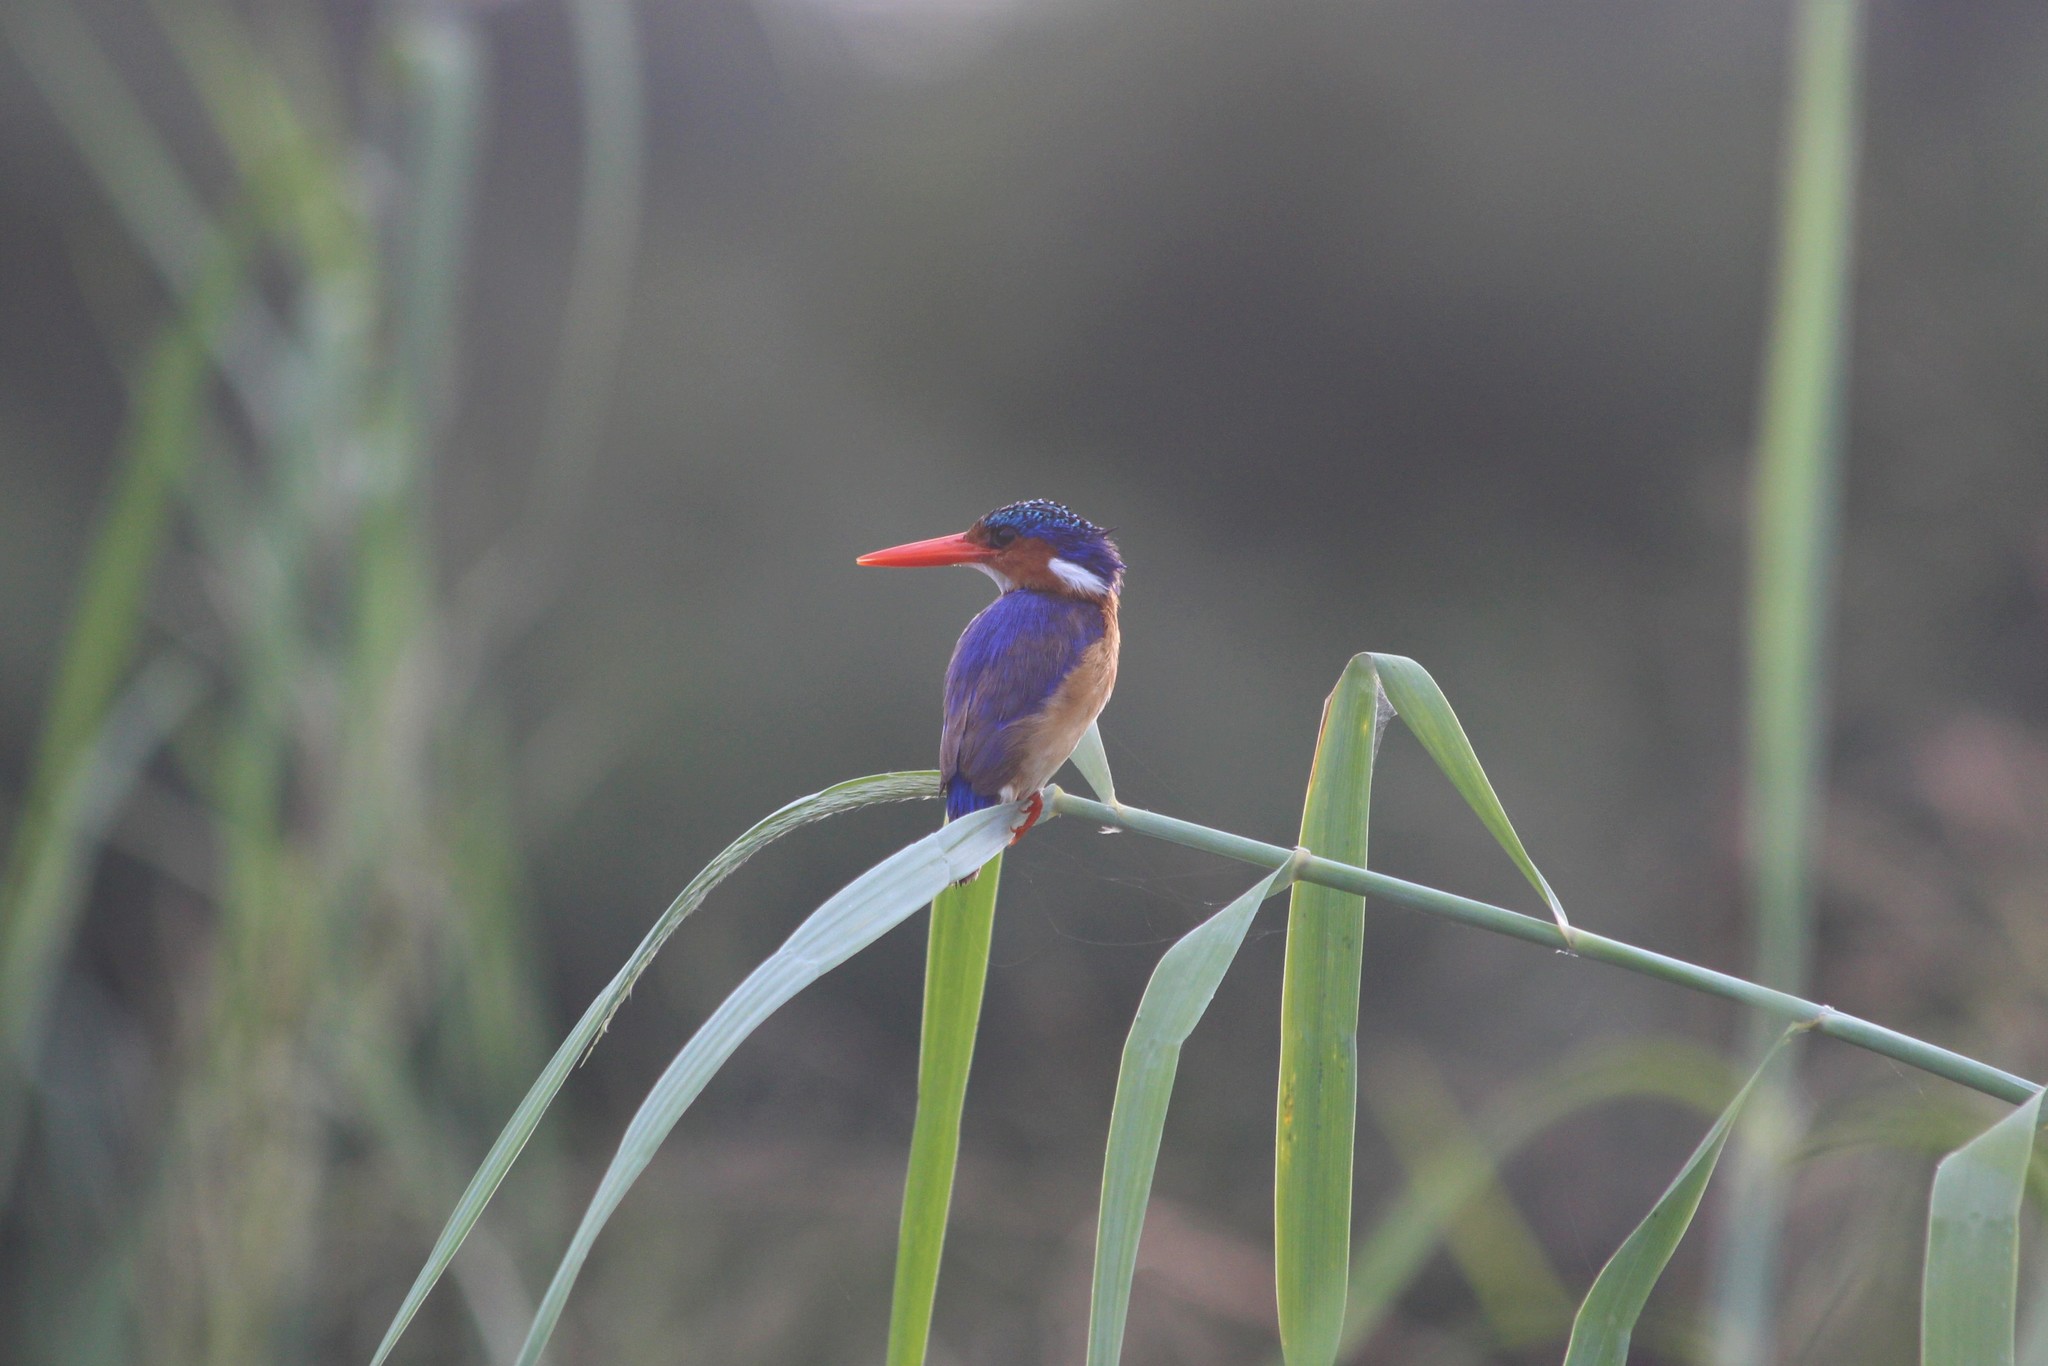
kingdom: Animalia
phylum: Chordata
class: Aves
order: Coraciiformes
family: Alcedinidae
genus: Corythornis
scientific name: Corythornis cristatus
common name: Malachite kingfisher
